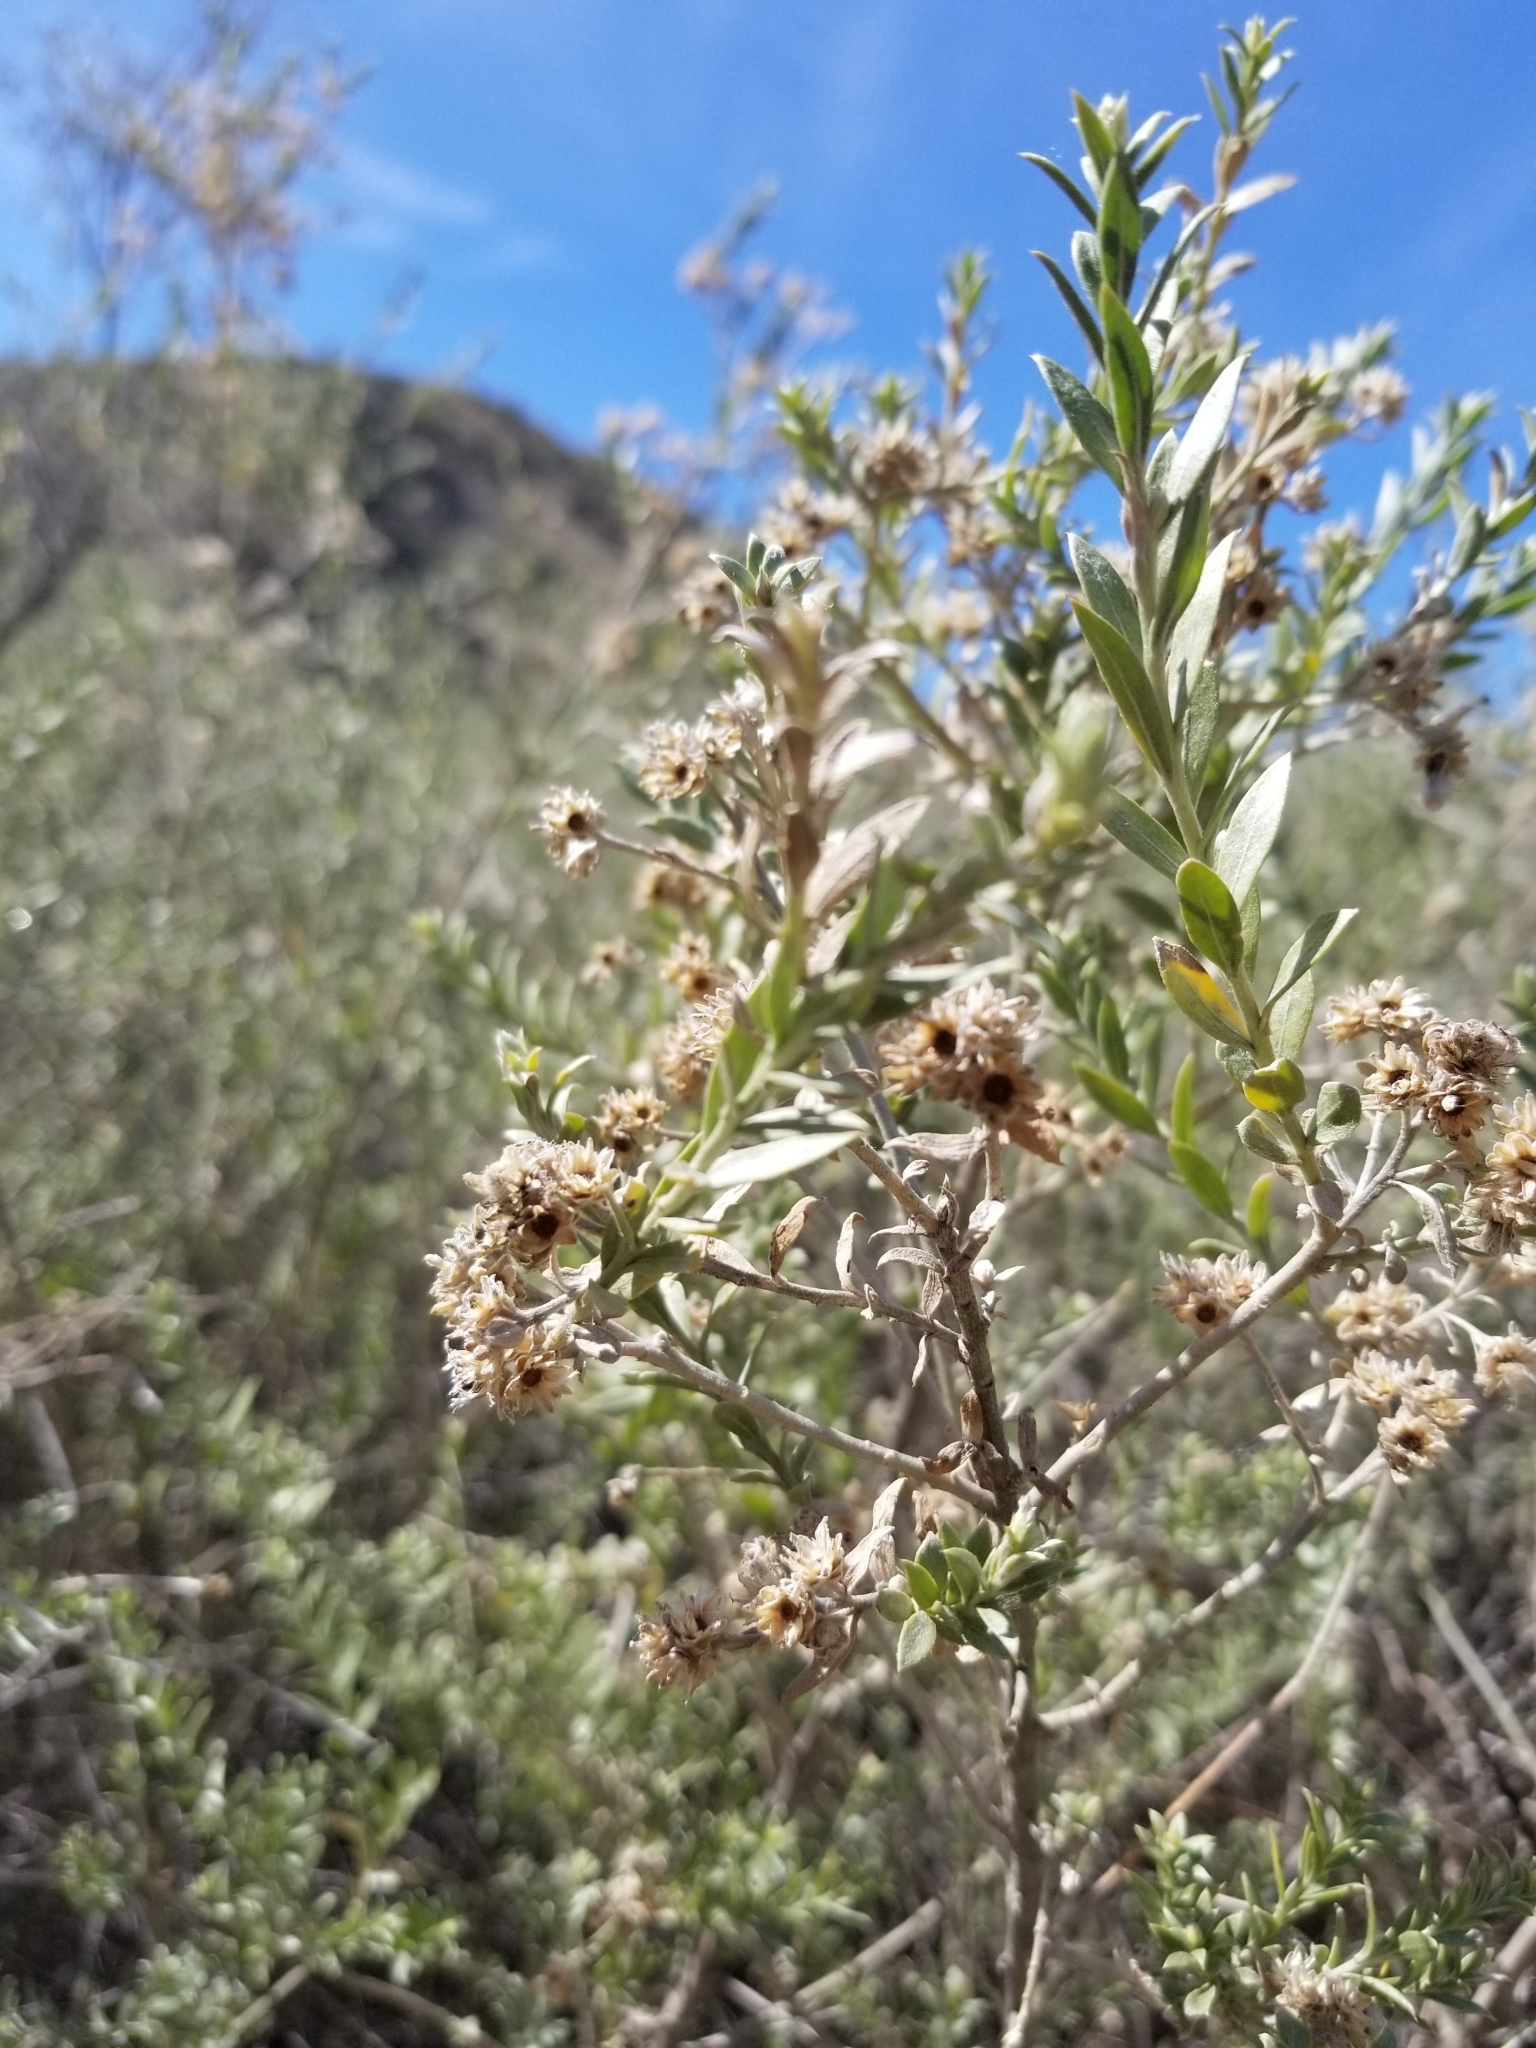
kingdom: Plantae
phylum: Tracheophyta
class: Magnoliopsida
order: Asterales
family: Asteraceae
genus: Pluchea
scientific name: Pluchea sericea
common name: Arrow-weed
